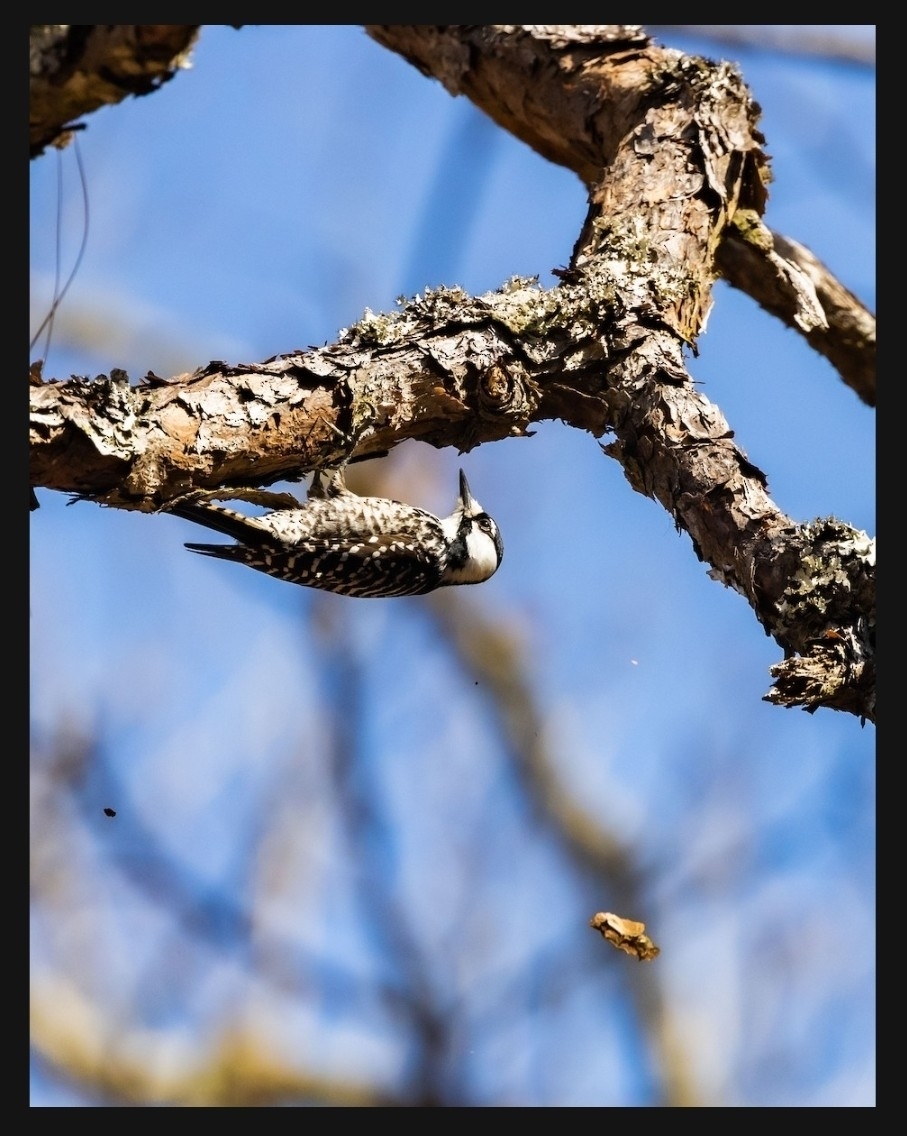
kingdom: Animalia
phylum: Chordata
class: Aves
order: Piciformes
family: Picidae
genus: Leuconotopicus
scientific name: Leuconotopicus borealis
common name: Red-cockaded woodpecker
